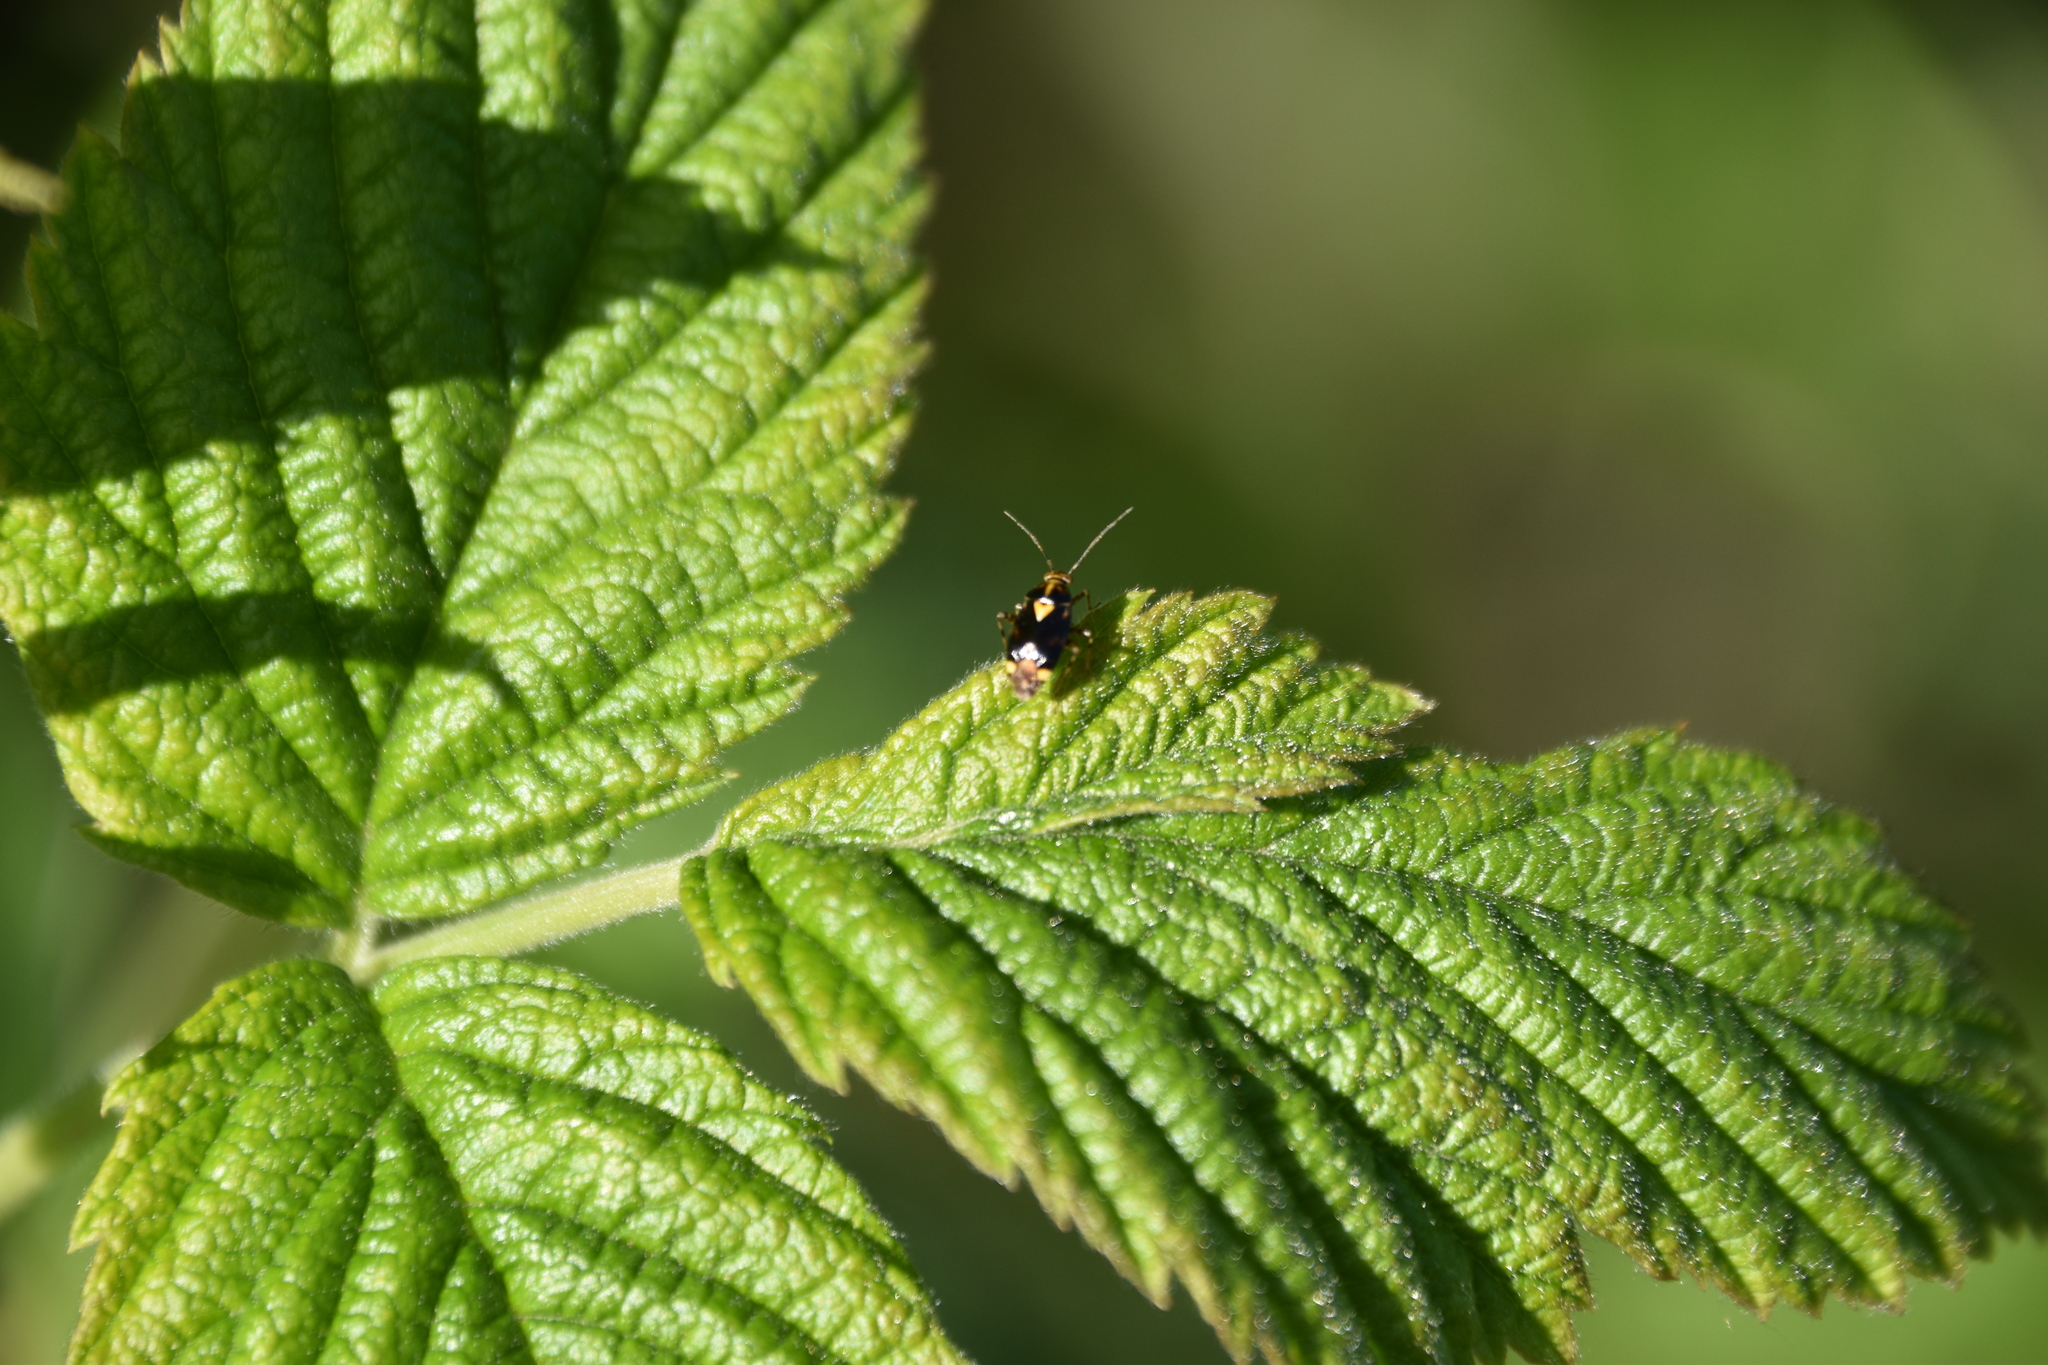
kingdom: Animalia
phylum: Arthropoda
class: Insecta
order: Hemiptera
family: Miridae
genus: Liocoris
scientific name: Liocoris tripustulatus
